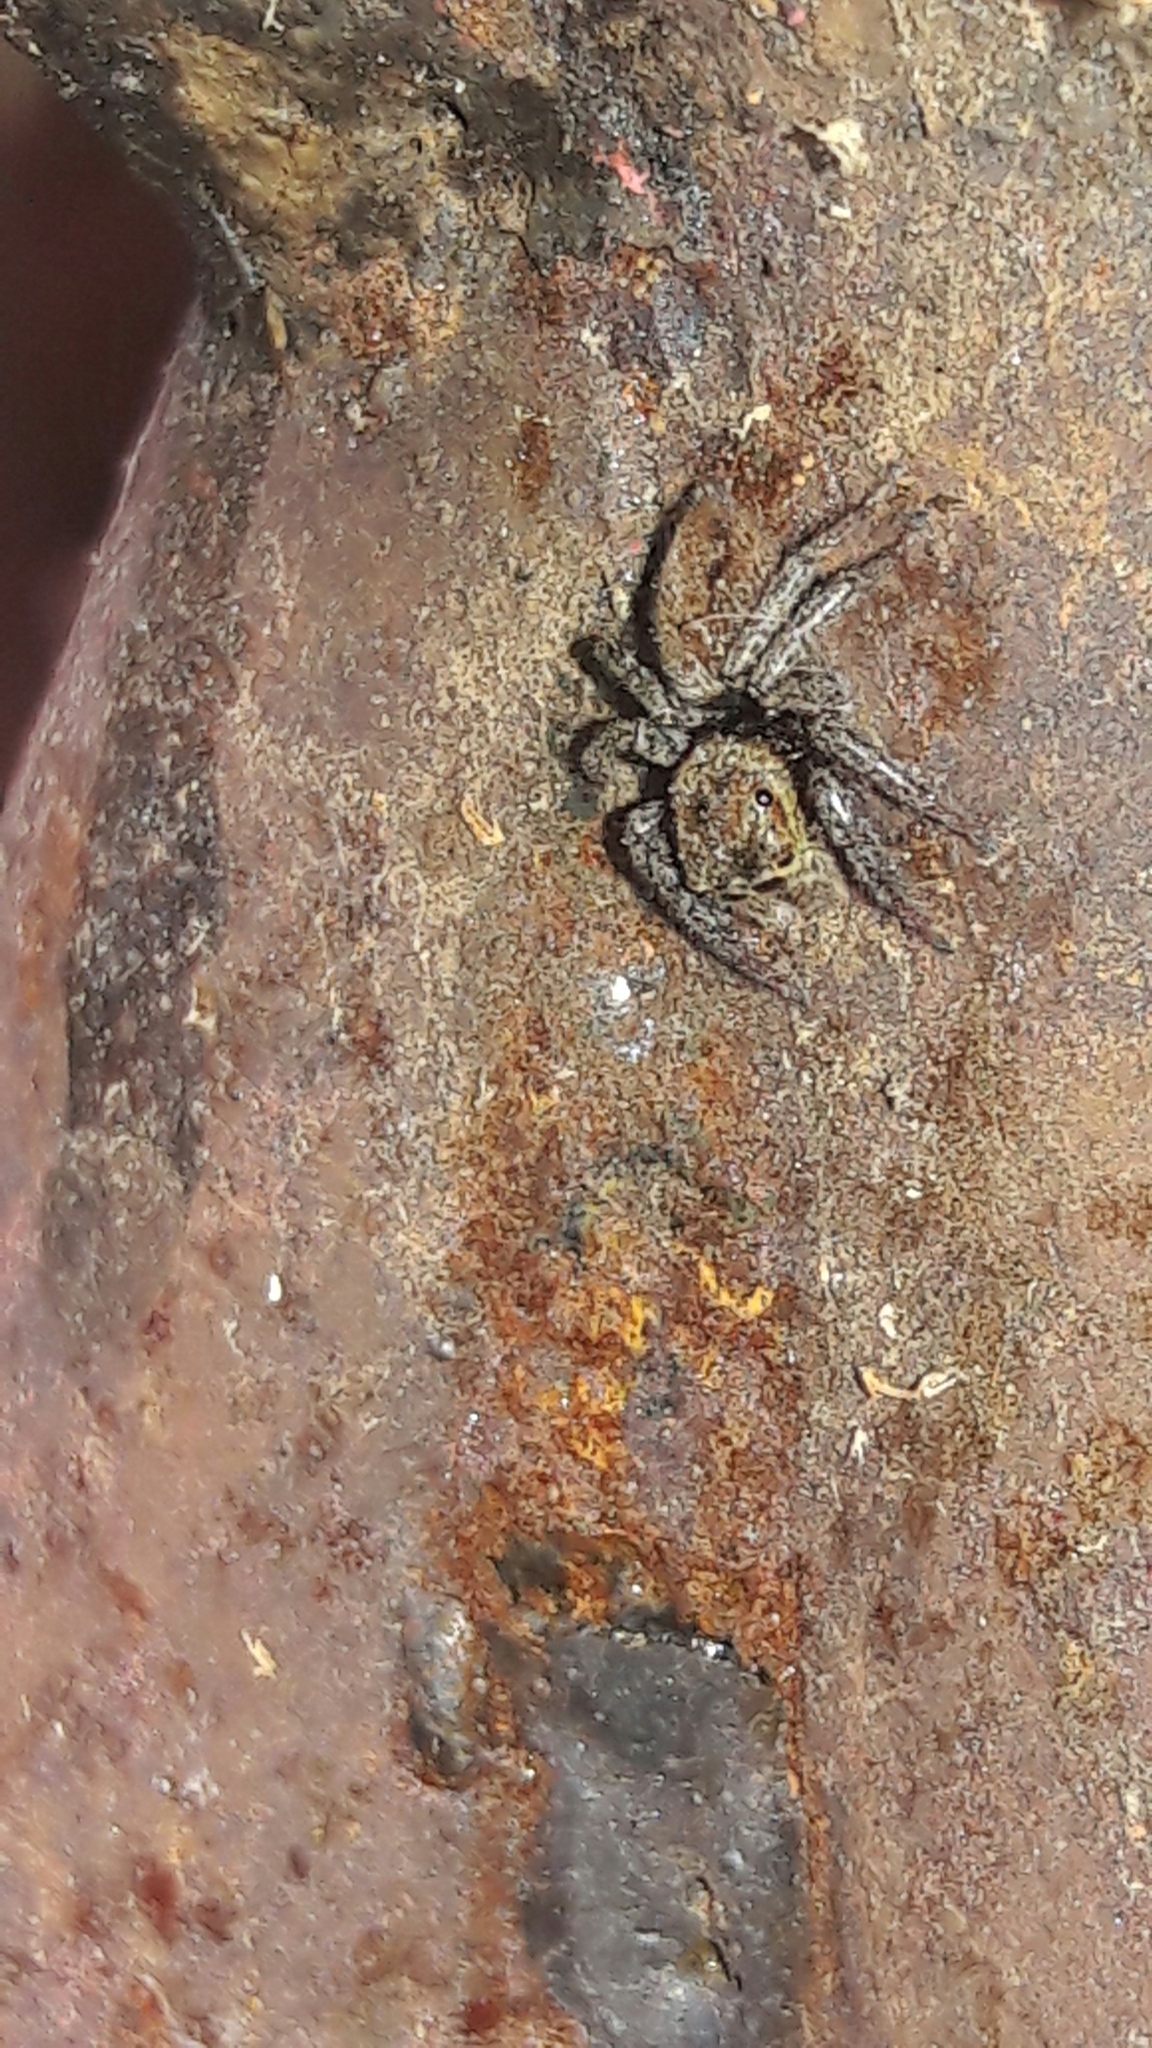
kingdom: Animalia
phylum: Arthropoda
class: Arachnida
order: Araneae
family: Salticidae
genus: Hasarius
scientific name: Hasarius adansoni
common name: Jumping spider
